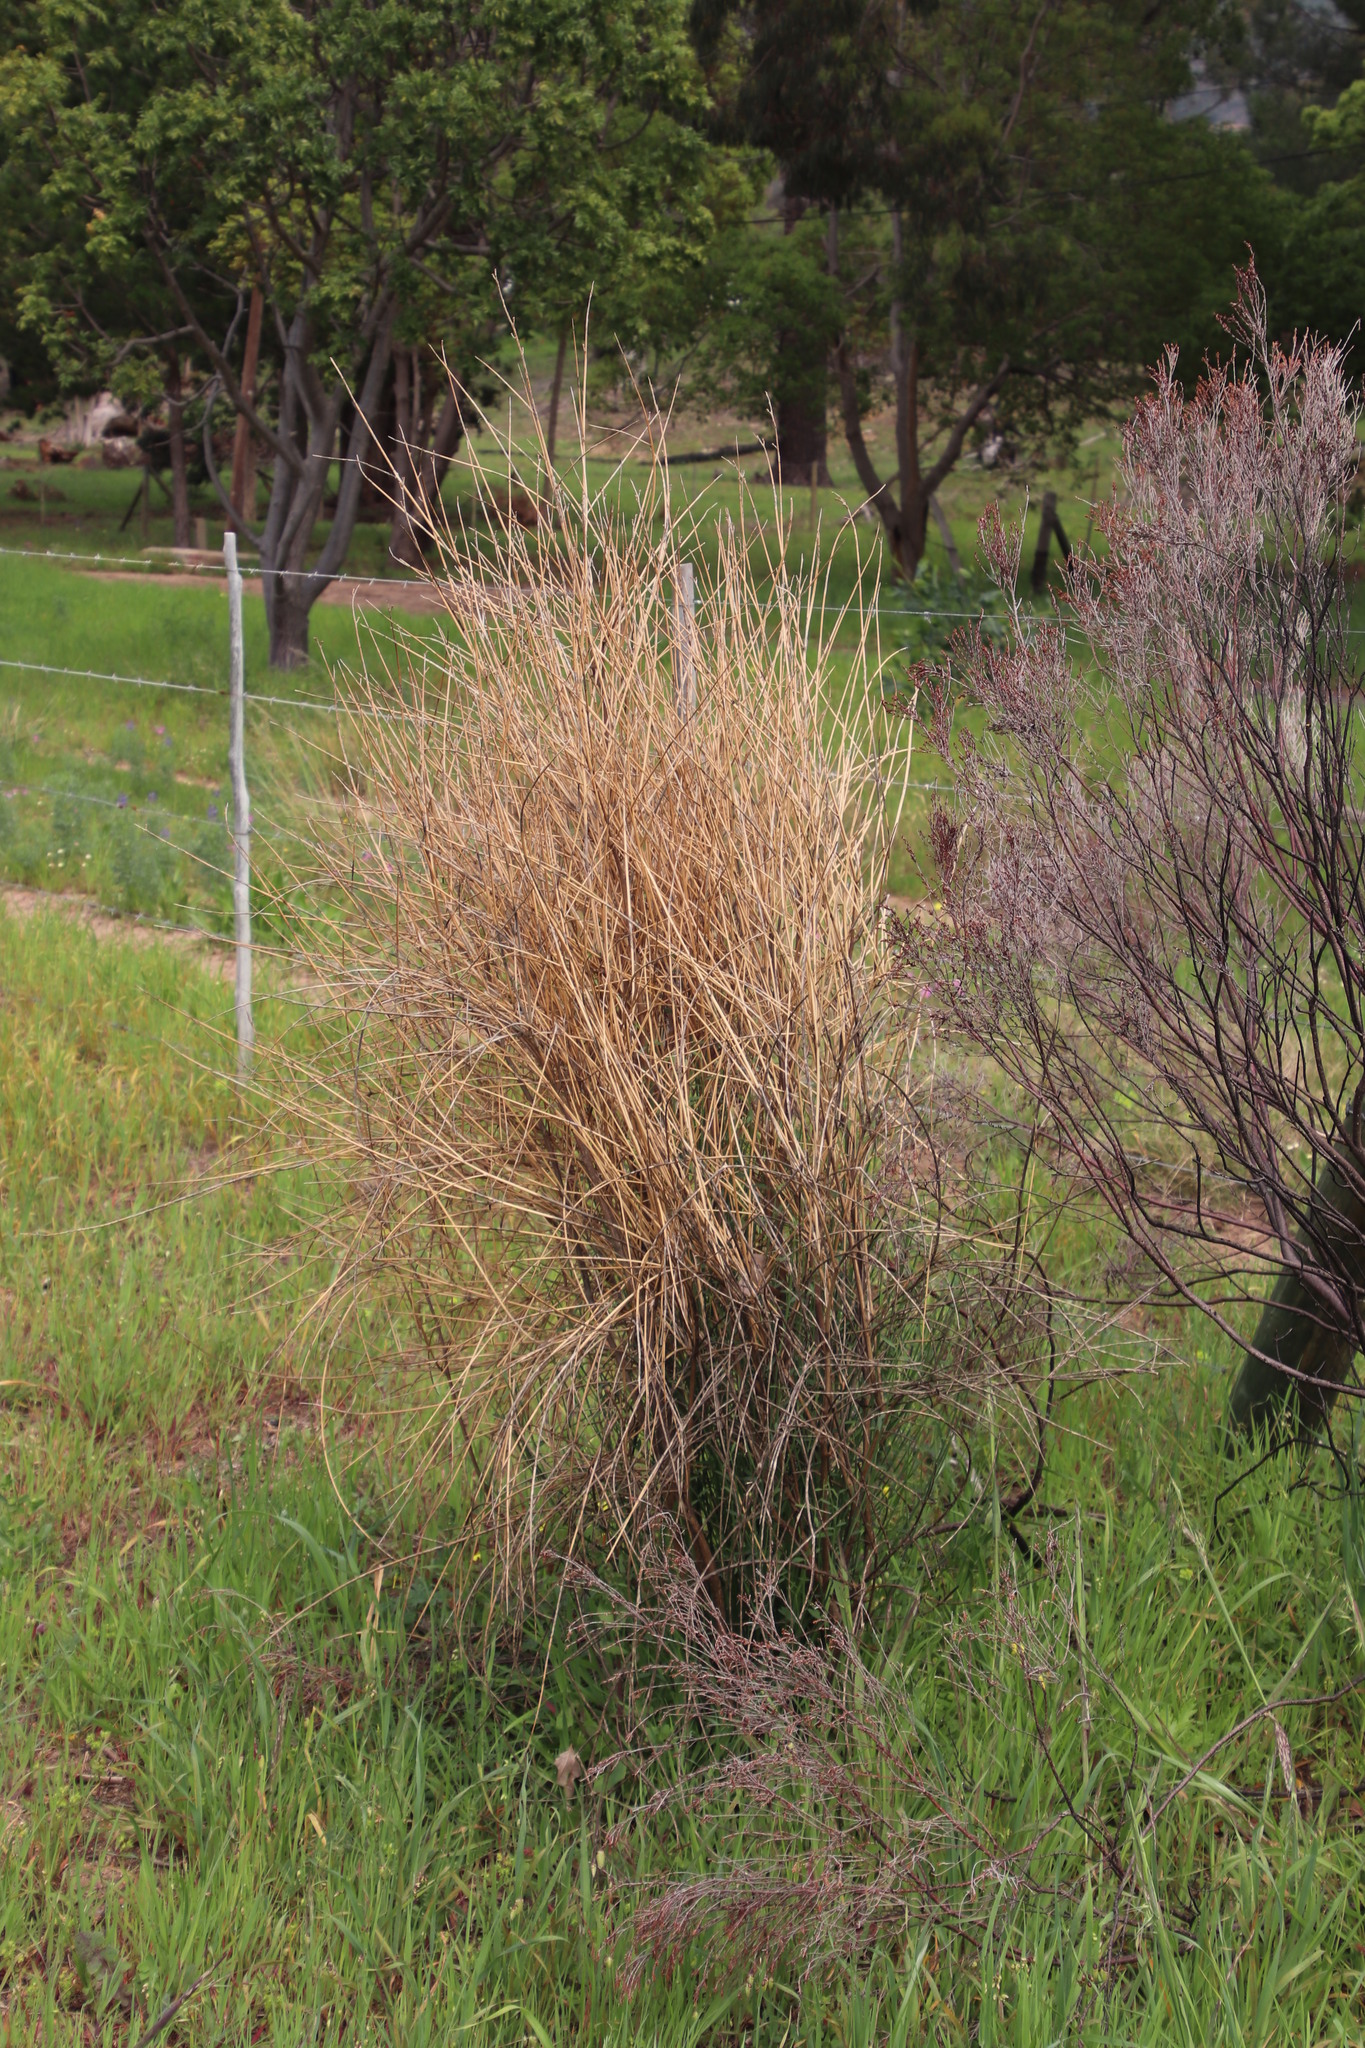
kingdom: Plantae
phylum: Tracheophyta
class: Magnoliopsida
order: Fabales
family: Fabaceae
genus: Spartium
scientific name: Spartium junceum
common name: Spanish broom
